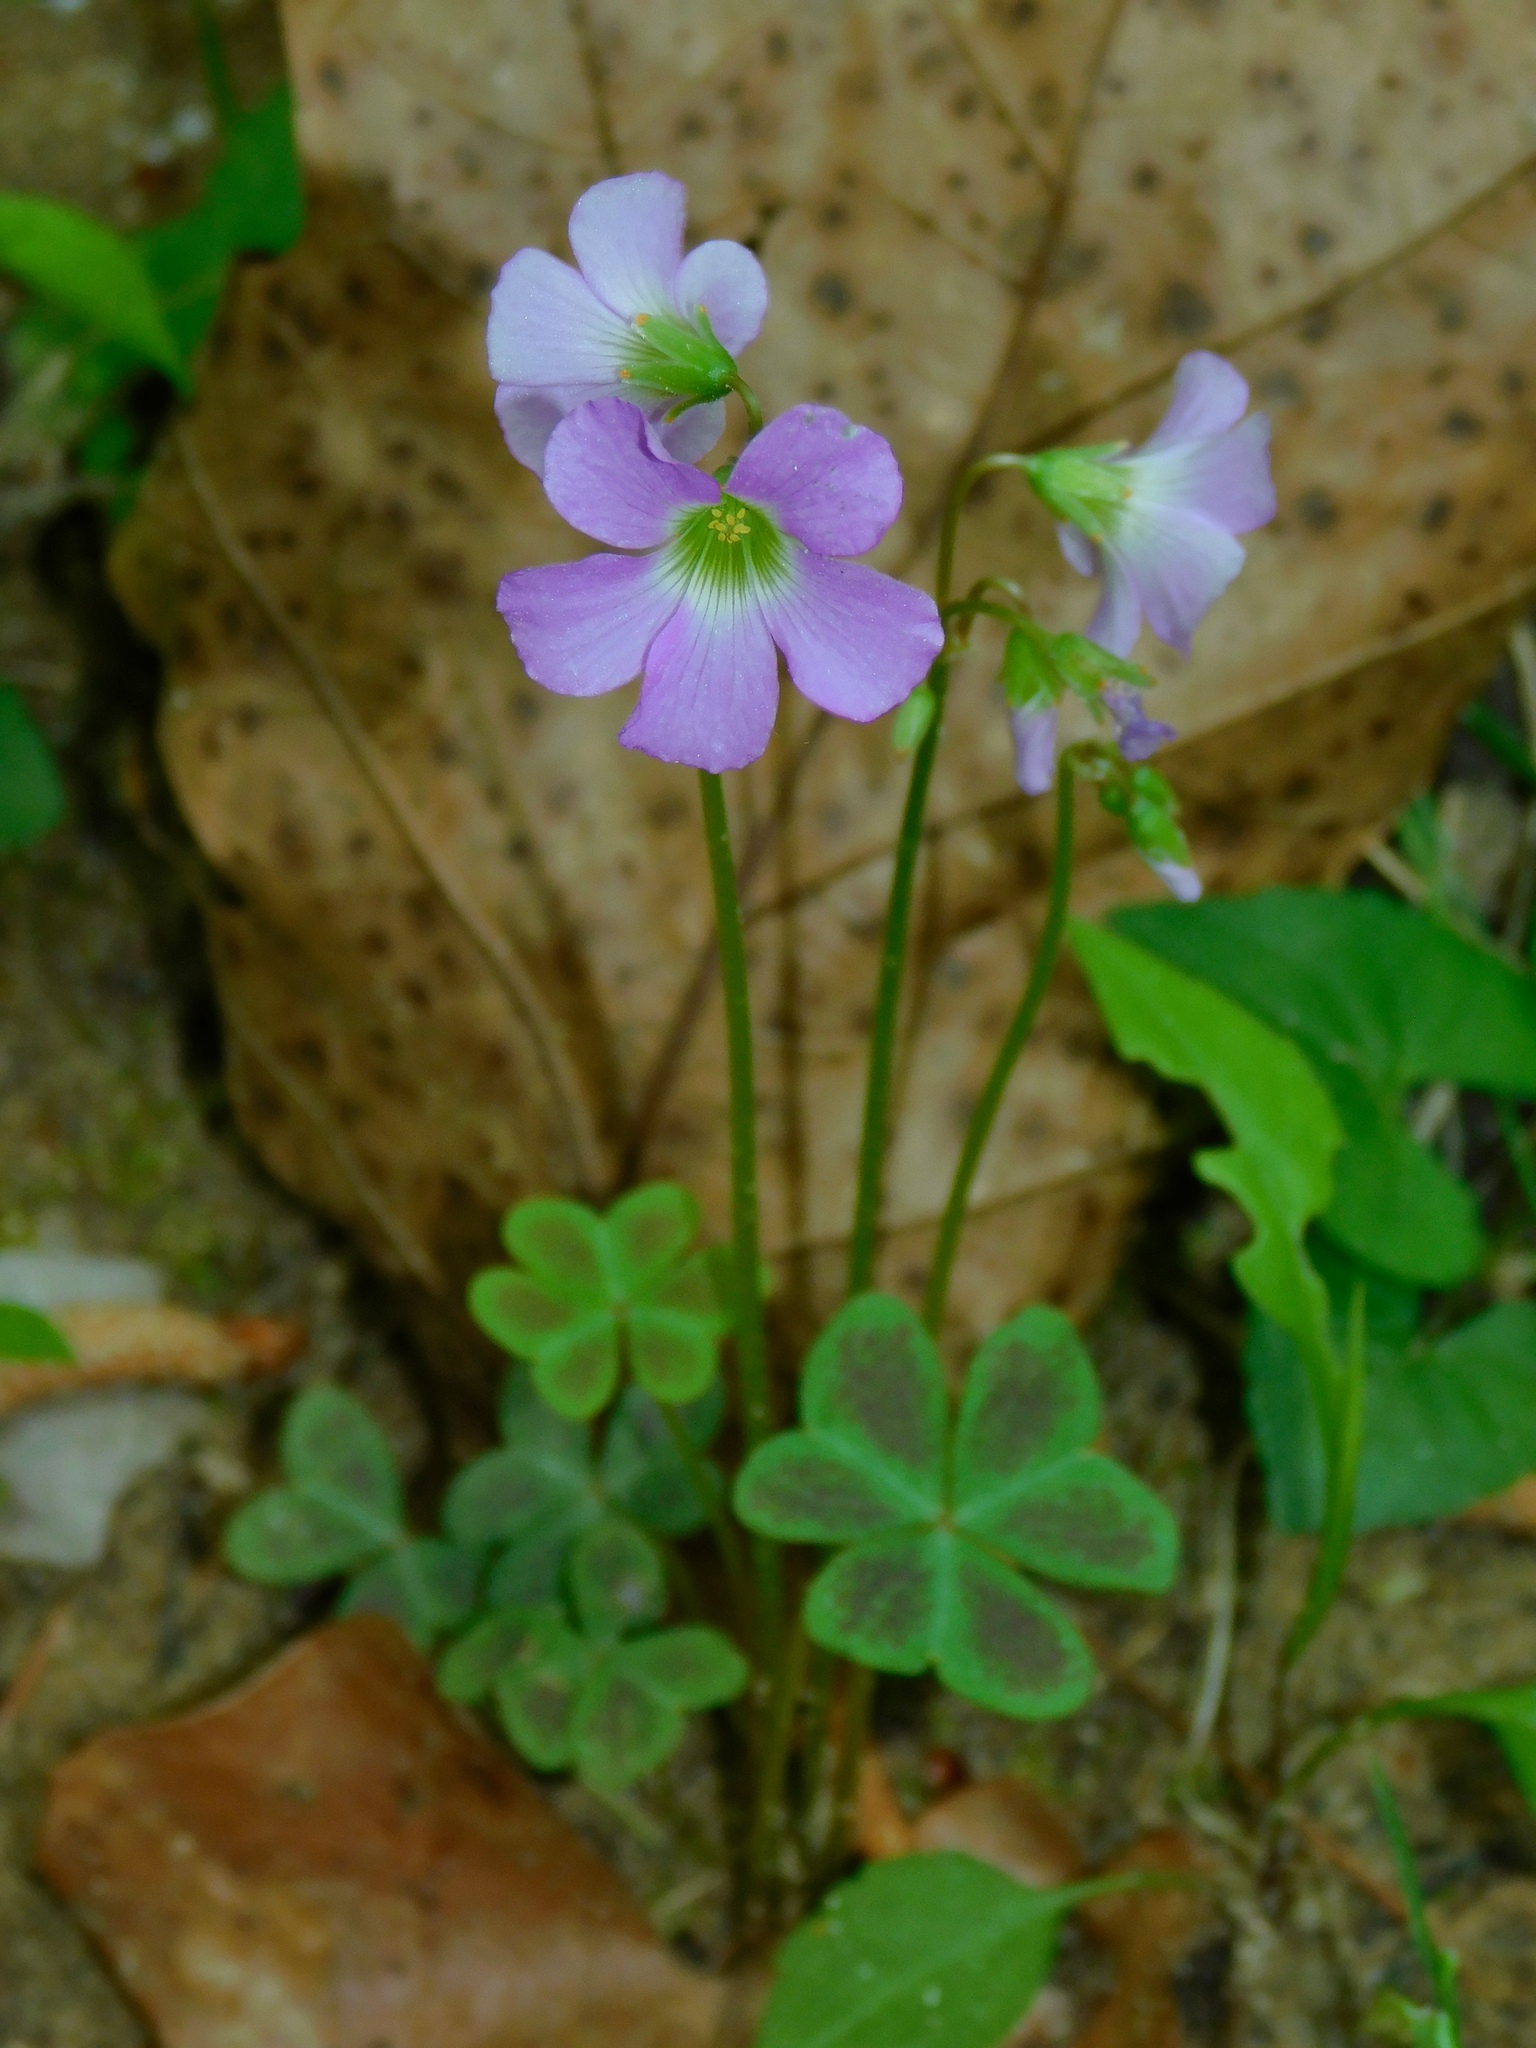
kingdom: Plantae
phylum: Tracheophyta
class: Magnoliopsida
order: Oxalidales
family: Oxalidaceae
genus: Oxalis
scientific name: Oxalis violacea
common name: Violet wood-sorrel
